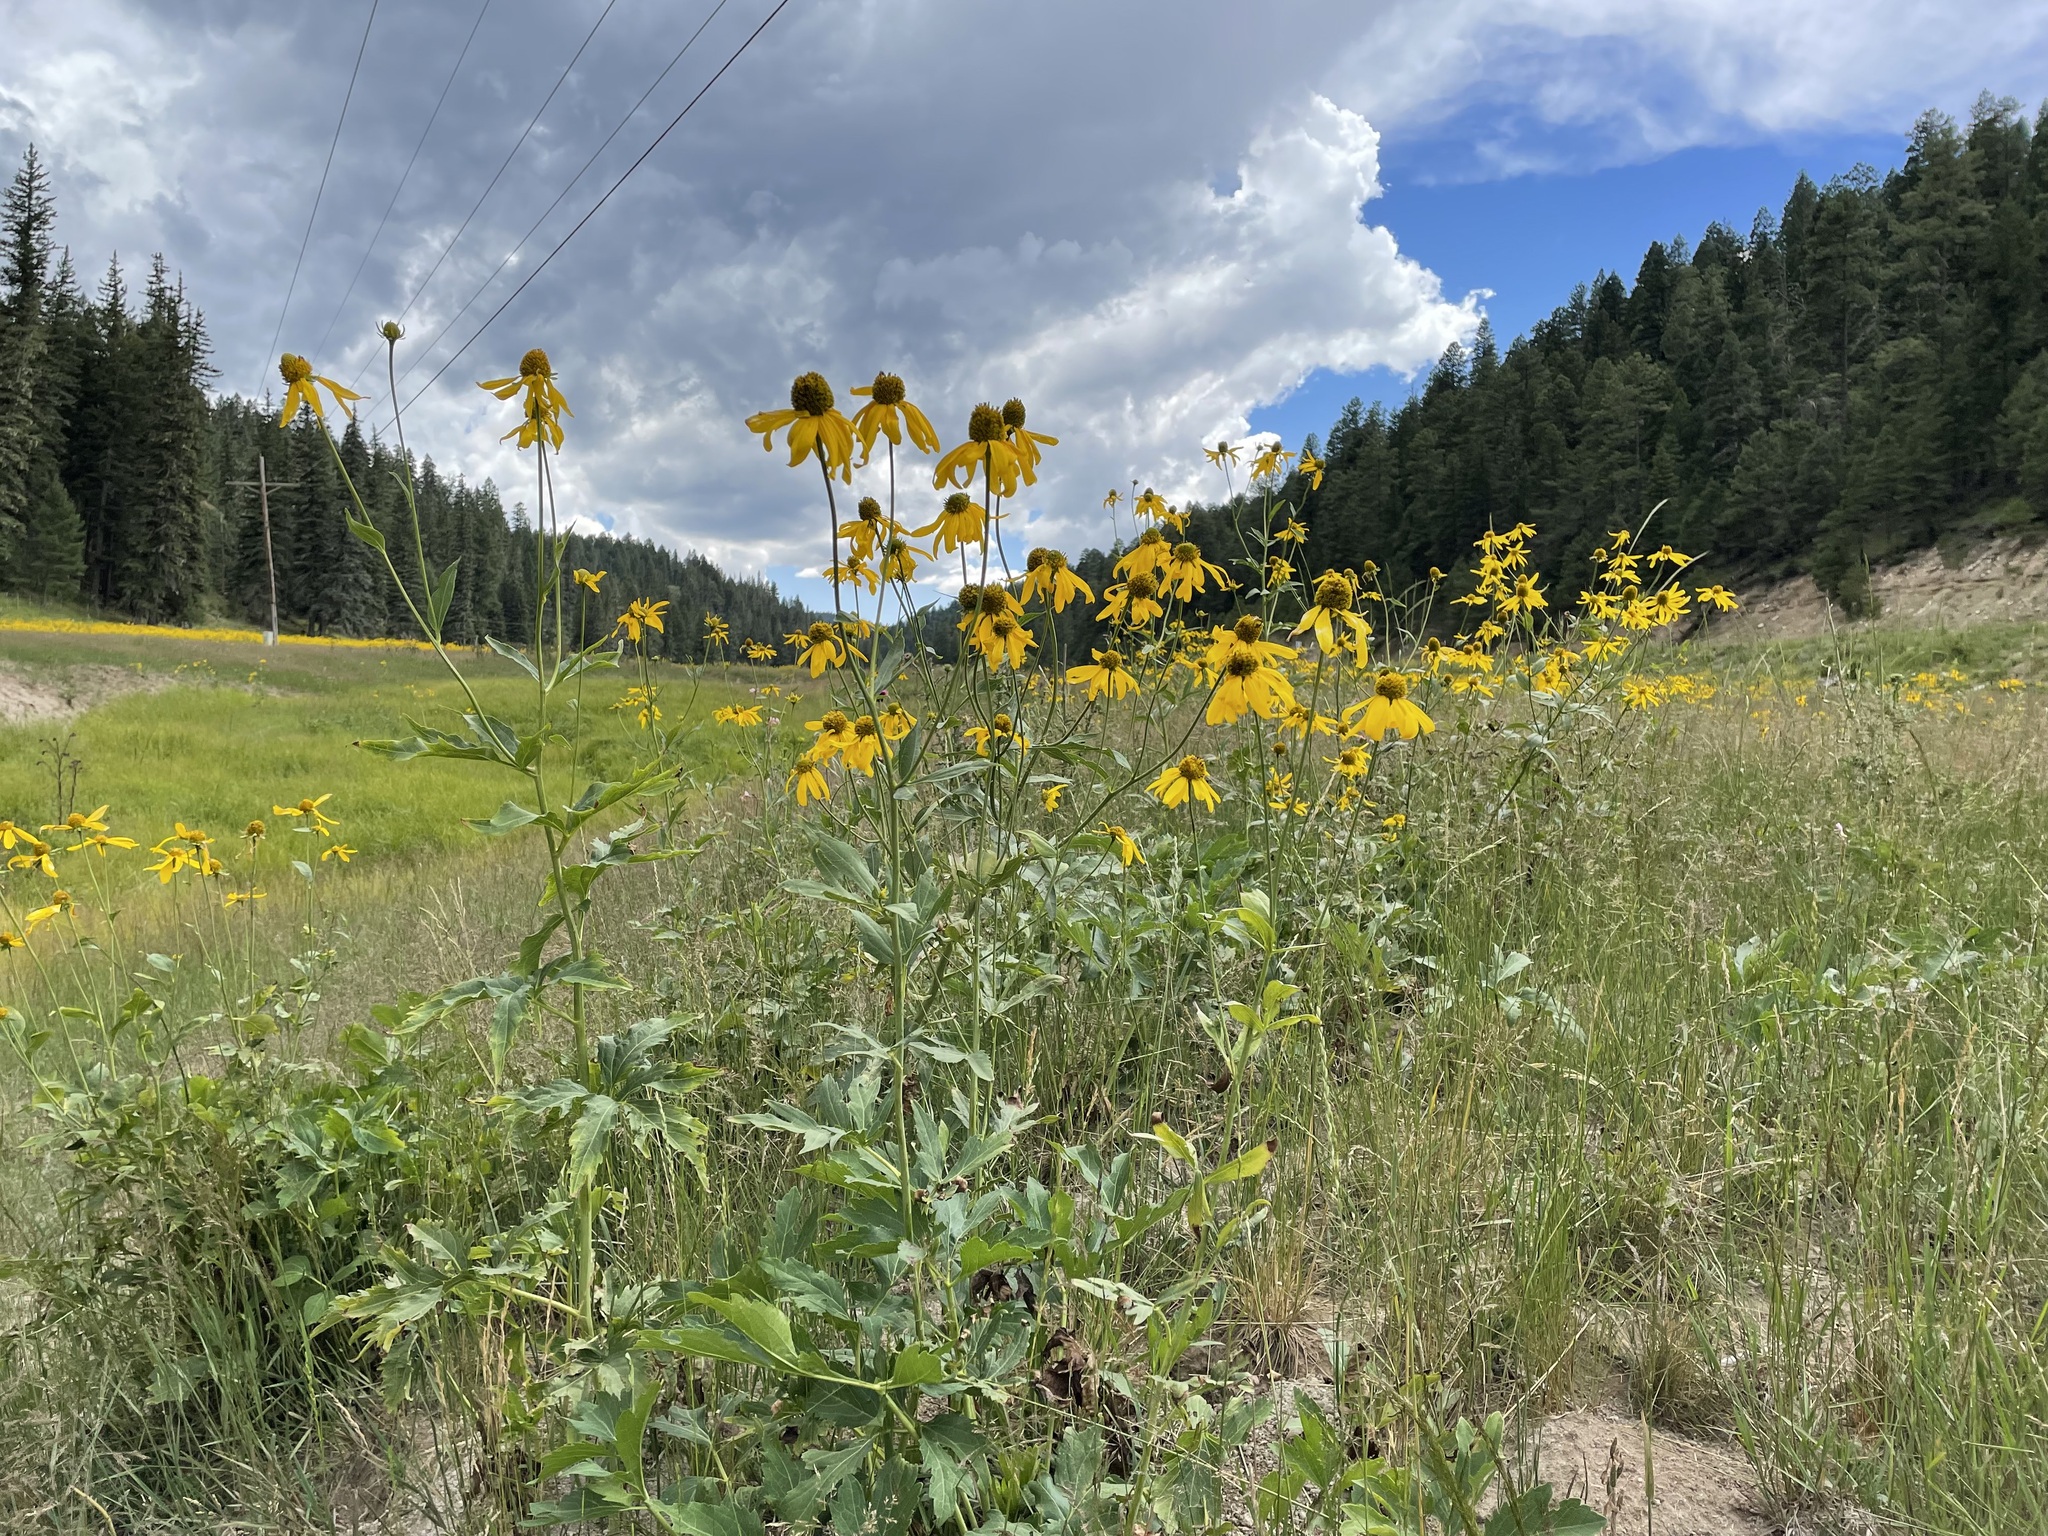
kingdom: Plantae
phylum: Tracheophyta
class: Magnoliopsida
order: Asterales
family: Asteraceae
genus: Rudbeckia
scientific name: Rudbeckia laciniata
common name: Coneflower
